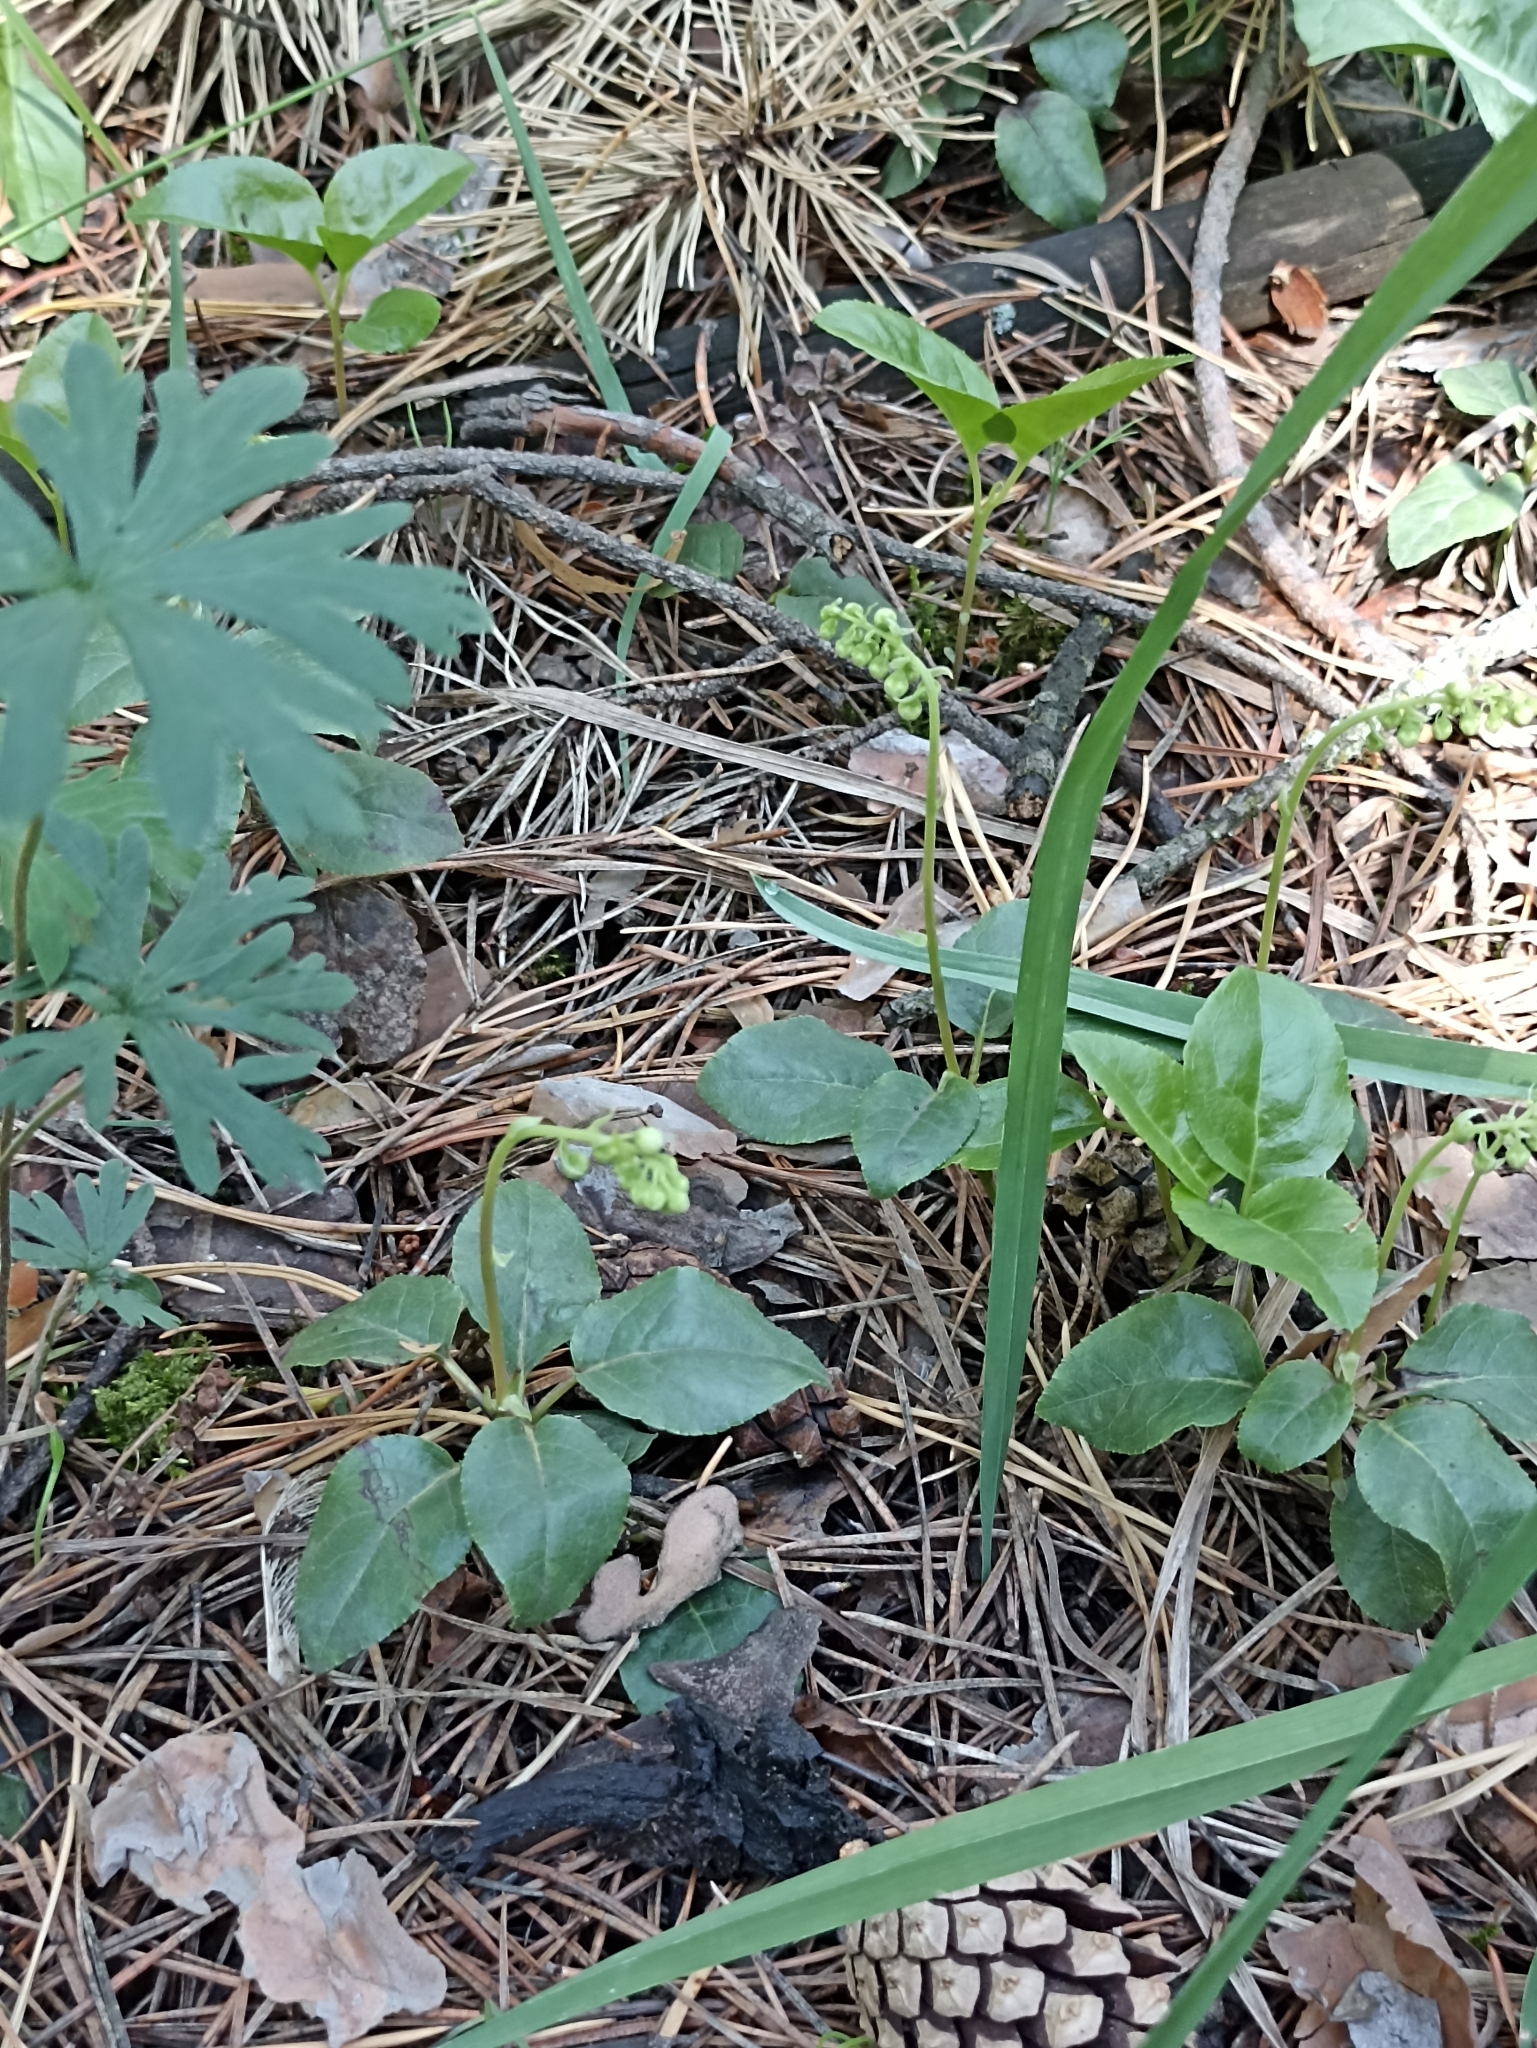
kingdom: Plantae
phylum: Tracheophyta
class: Magnoliopsida
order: Ericales
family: Ericaceae
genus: Orthilia
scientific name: Orthilia secunda
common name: One-sided orthilia
